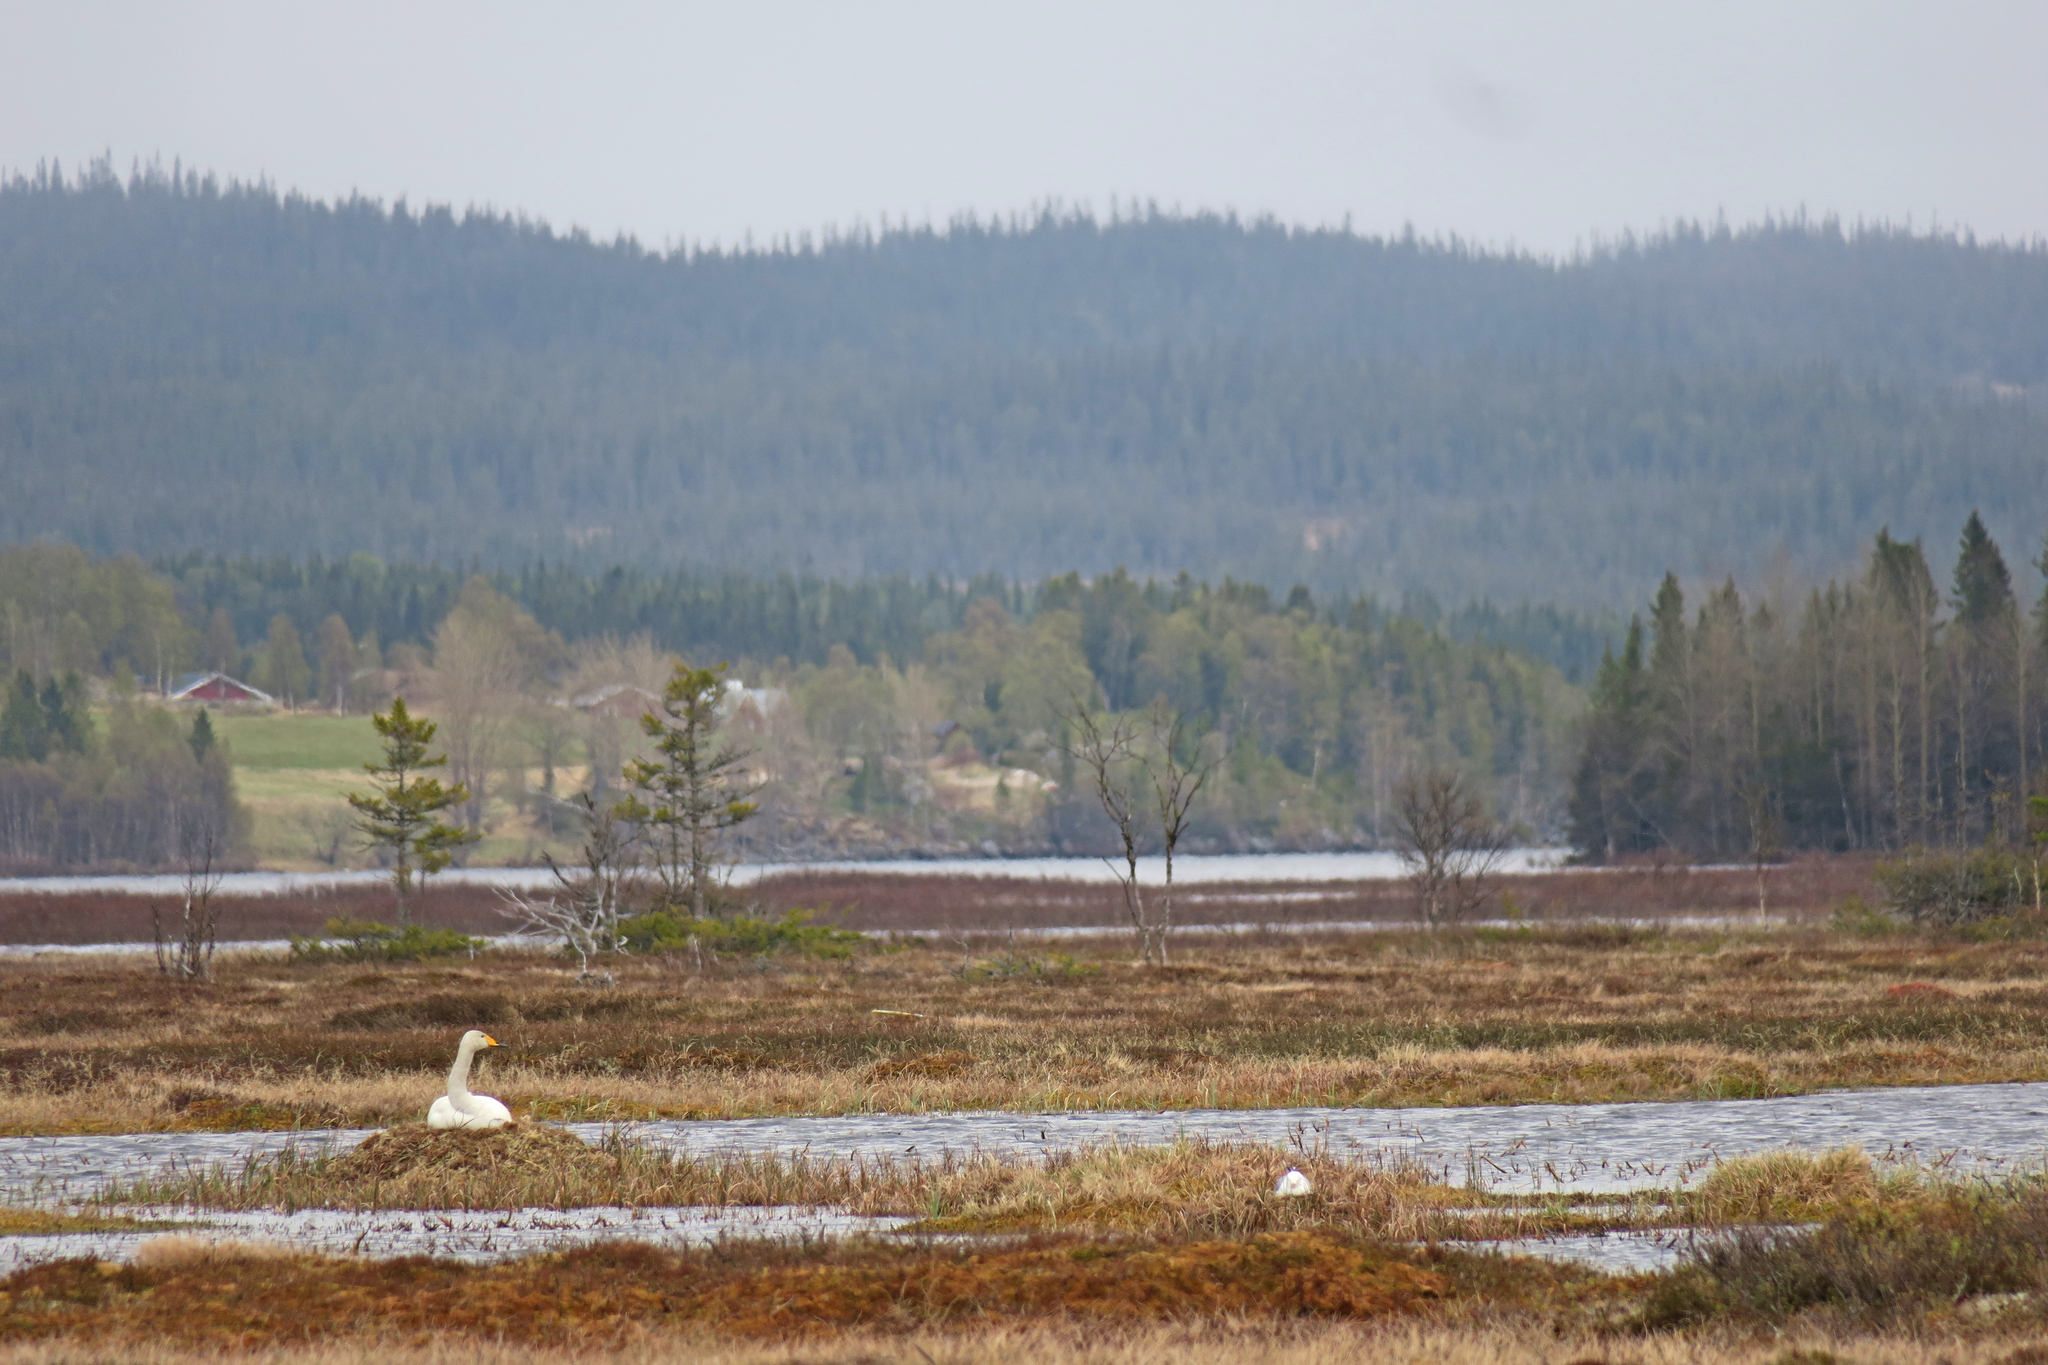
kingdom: Animalia
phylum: Chordata
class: Aves
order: Anseriformes
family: Anatidae
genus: Cygnus
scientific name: Cygnus cygnus
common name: Whooper swan
